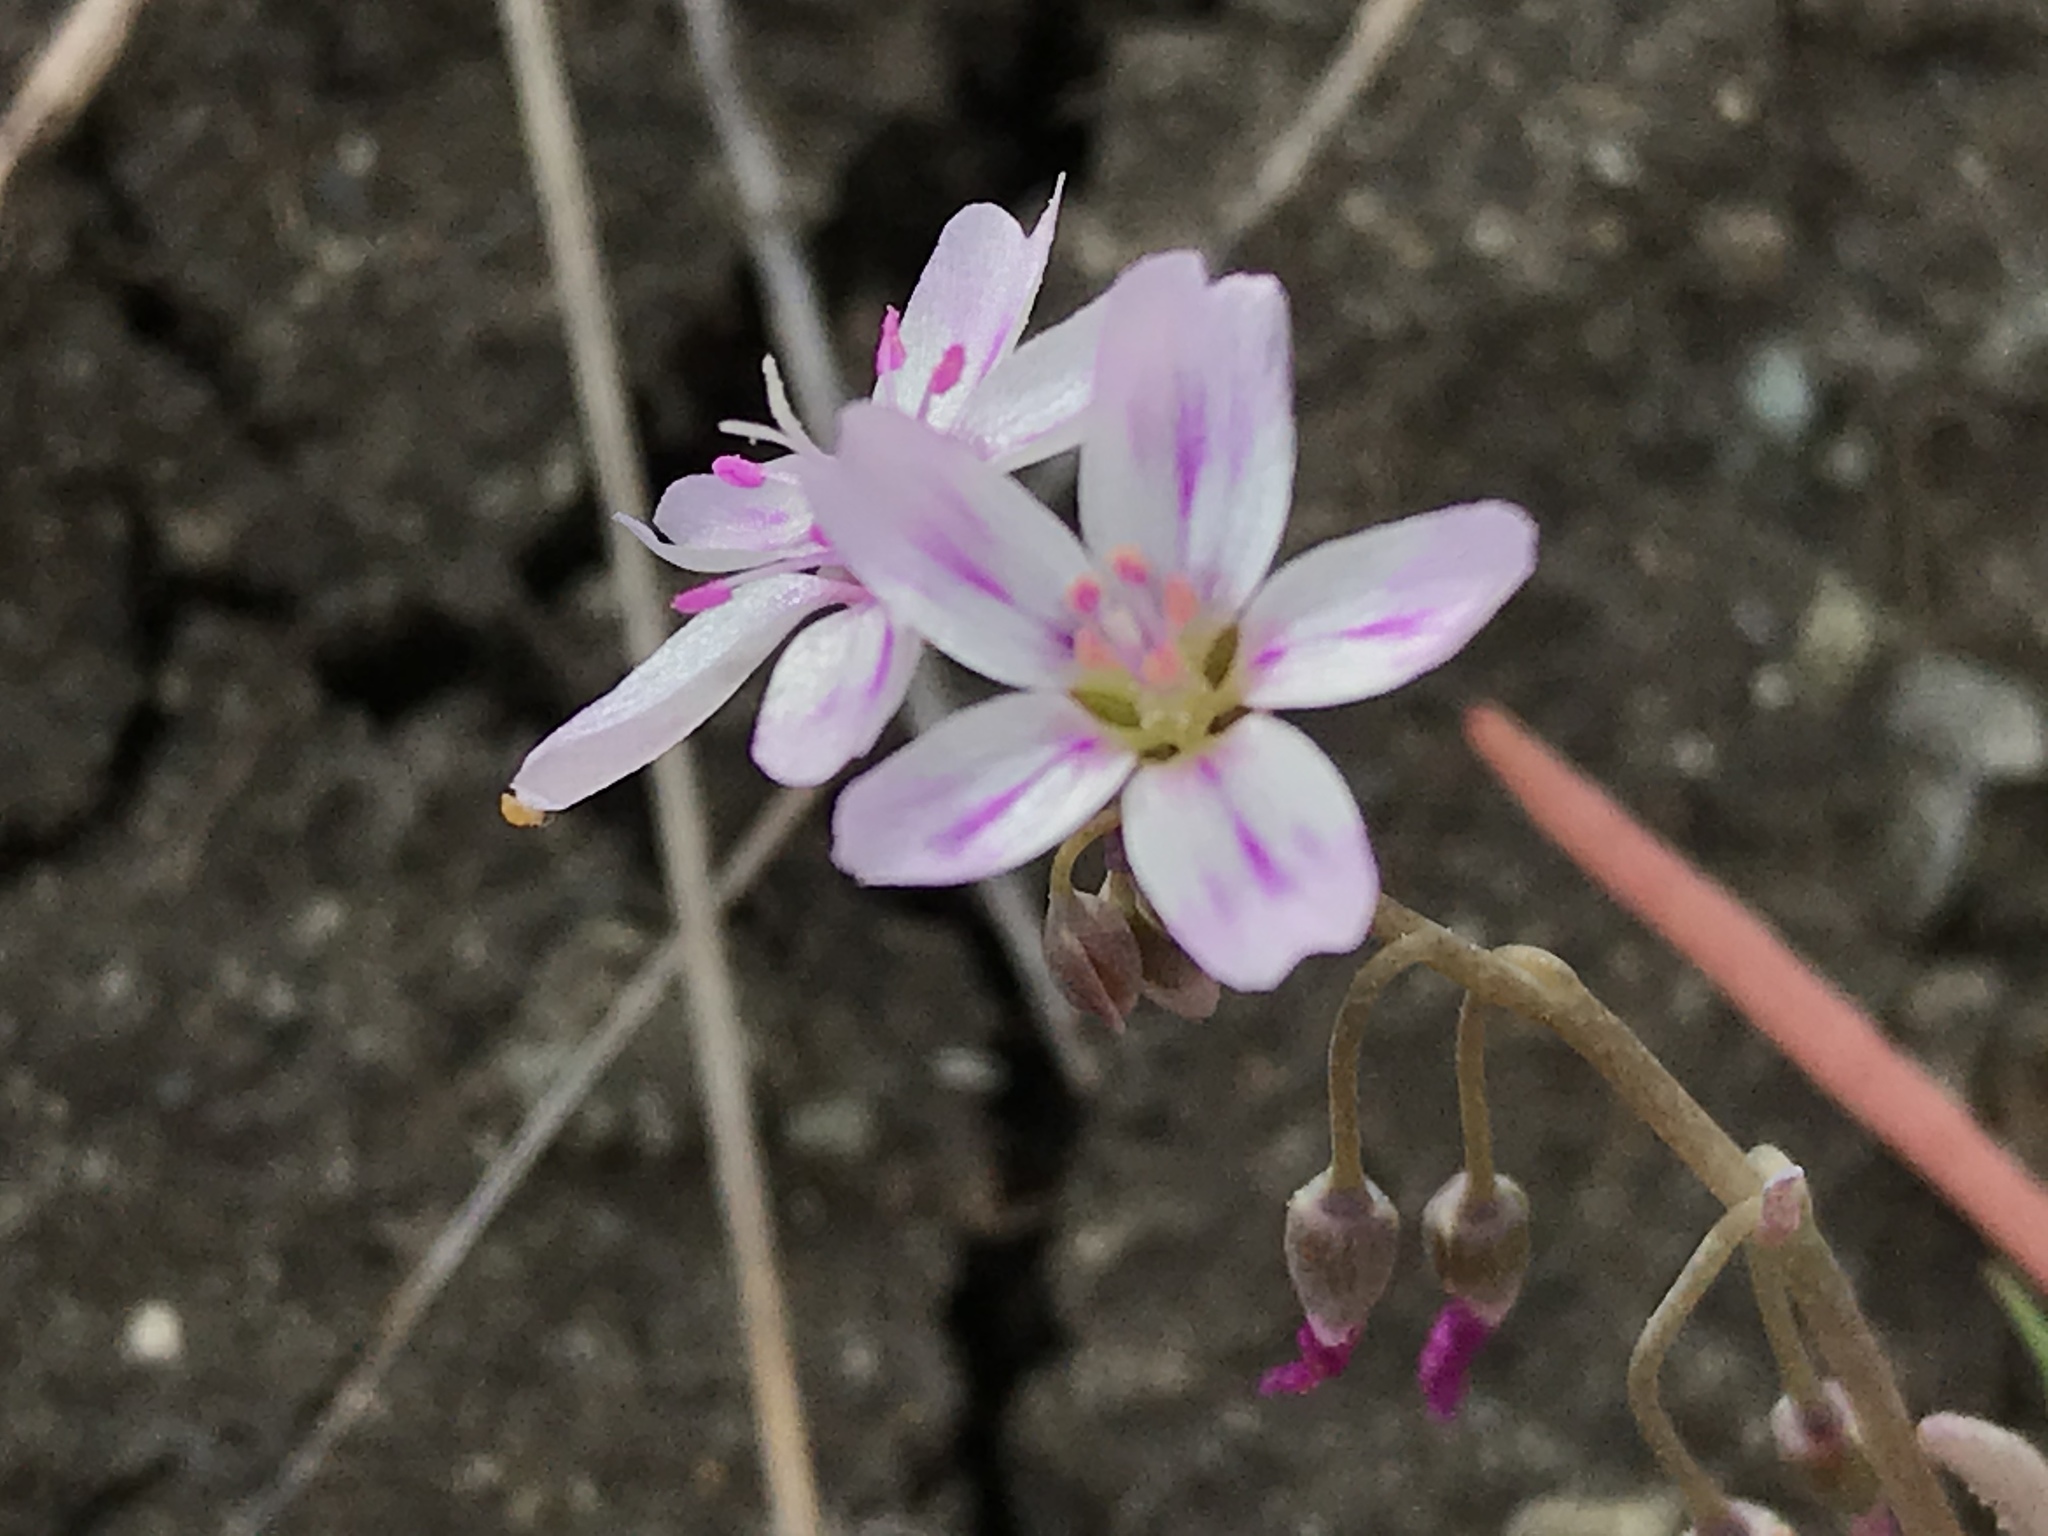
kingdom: Plantae
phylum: Tracheophyta
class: Magnoliopsida
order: Caryophyllales
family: Montiaceae
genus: Claytonia
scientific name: Claytonia gypsophiloides
